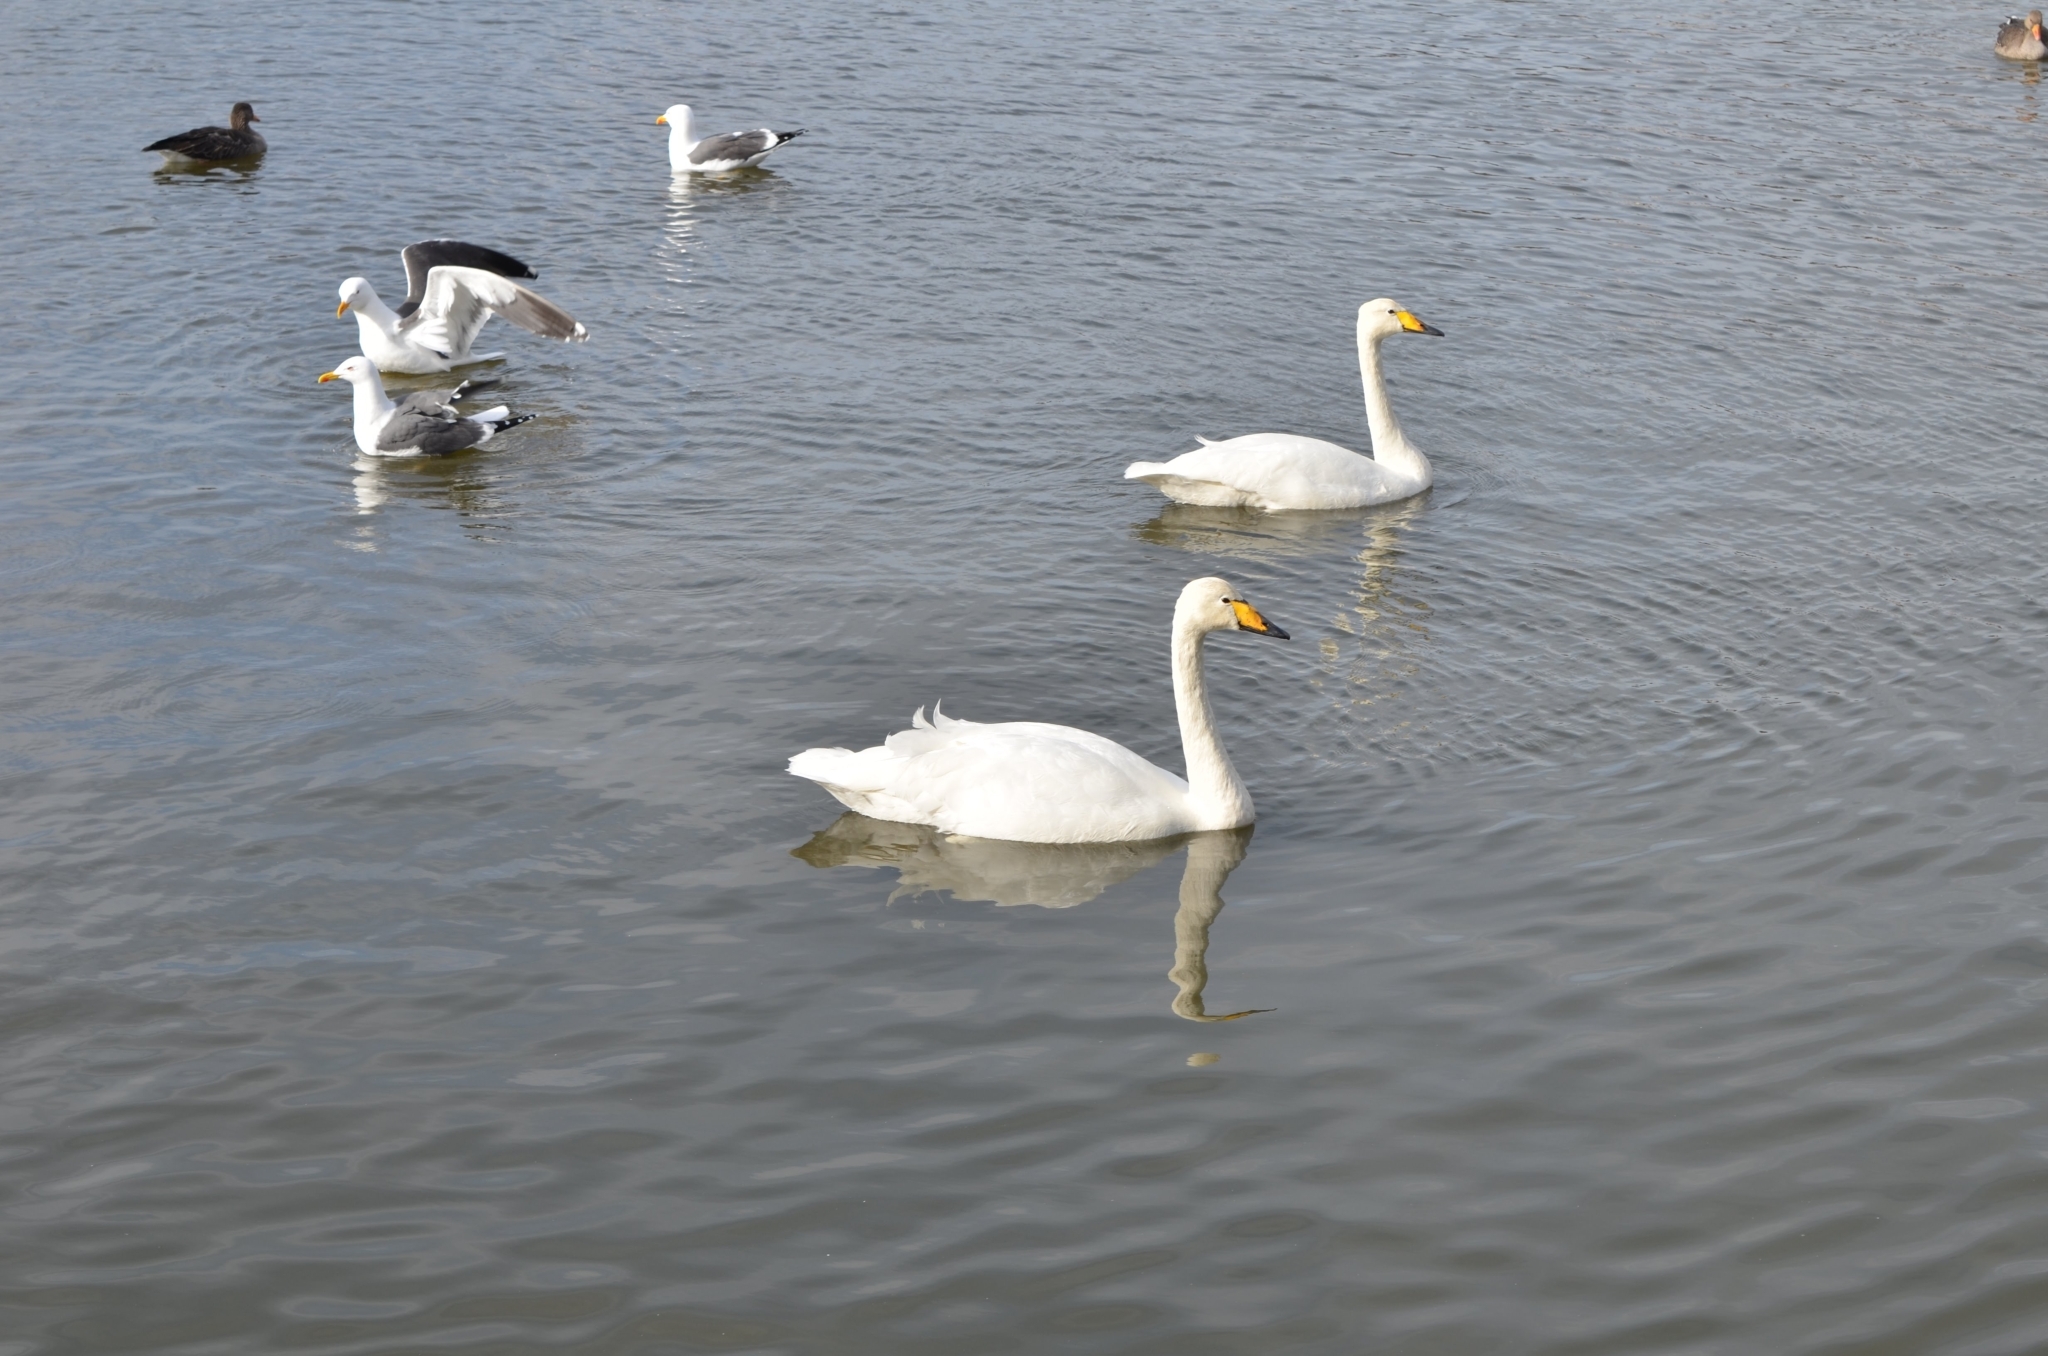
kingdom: Animalia
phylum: Chordata
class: Aves
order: Anseriformes
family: Anatidae
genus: Cygnus
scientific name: Cygnus cygnus
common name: Whooper swan
